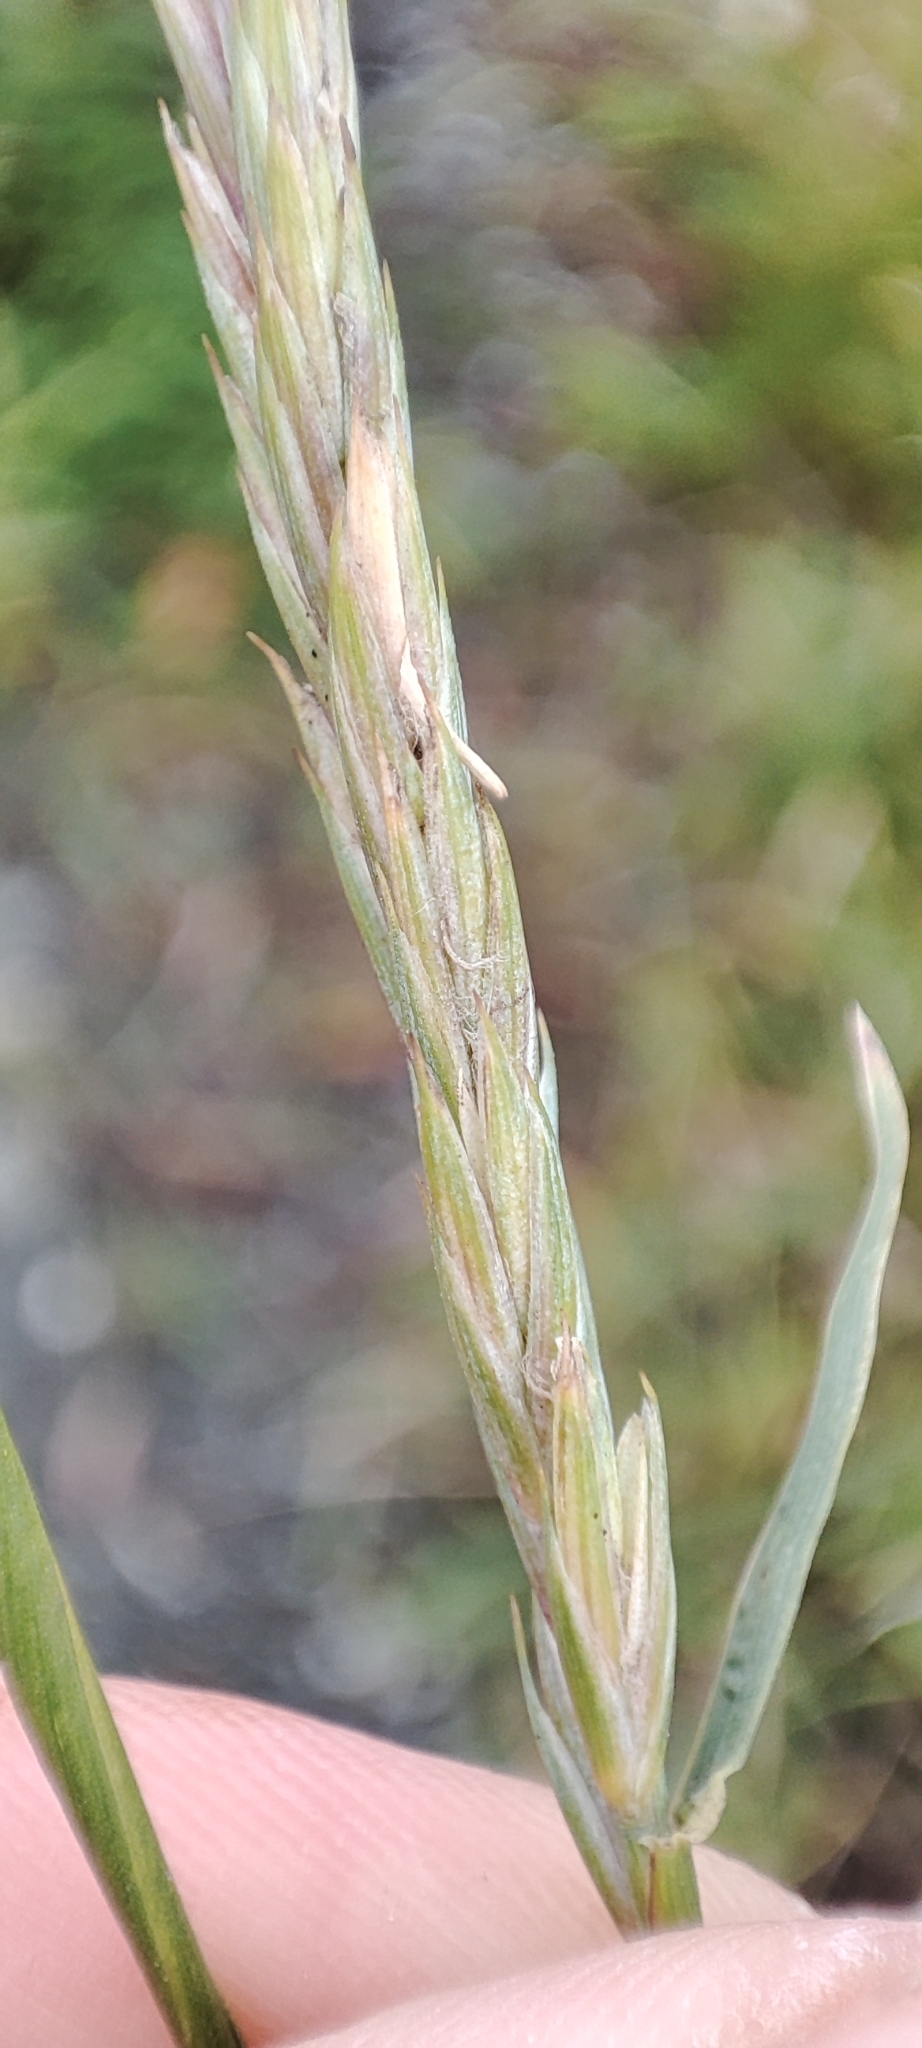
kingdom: Plantae
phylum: Tracheophyta
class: Liliopsida
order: Poales
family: Poaceae
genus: Elymus
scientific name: Elymus repens
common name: Quackgrass
